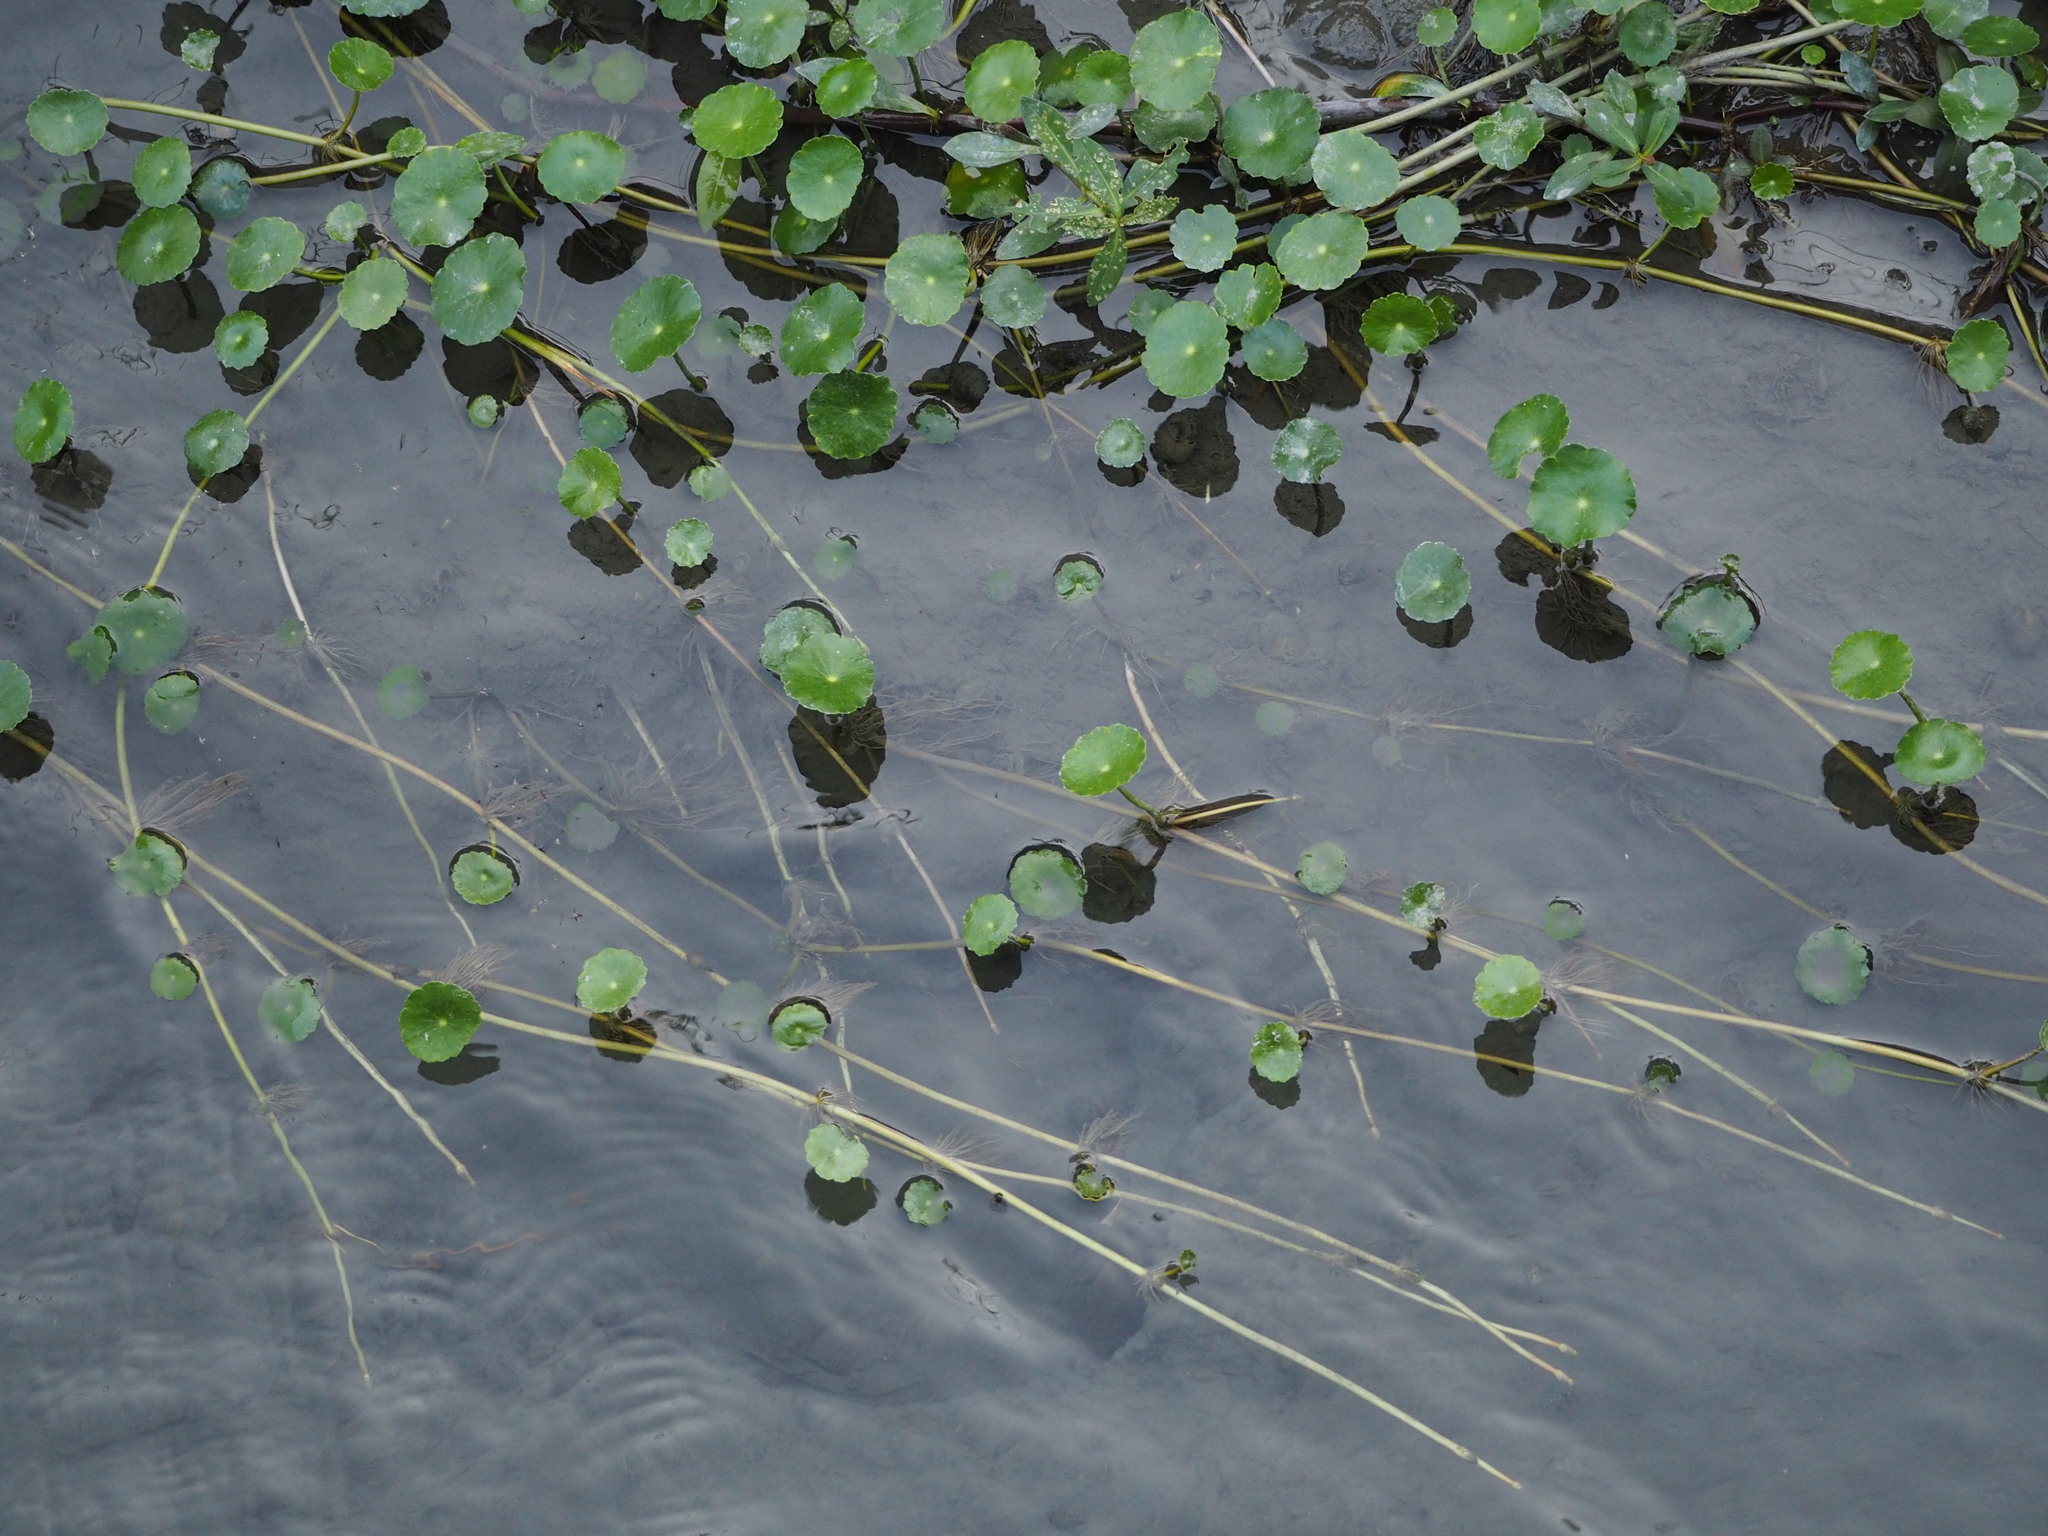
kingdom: Plantae
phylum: Tracheophyta
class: Magnoliopsida
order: Apiales
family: Araliaceae
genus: Hydrocotyle
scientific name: Hydrocotyle verticillata
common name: Whorled marshpennywort
